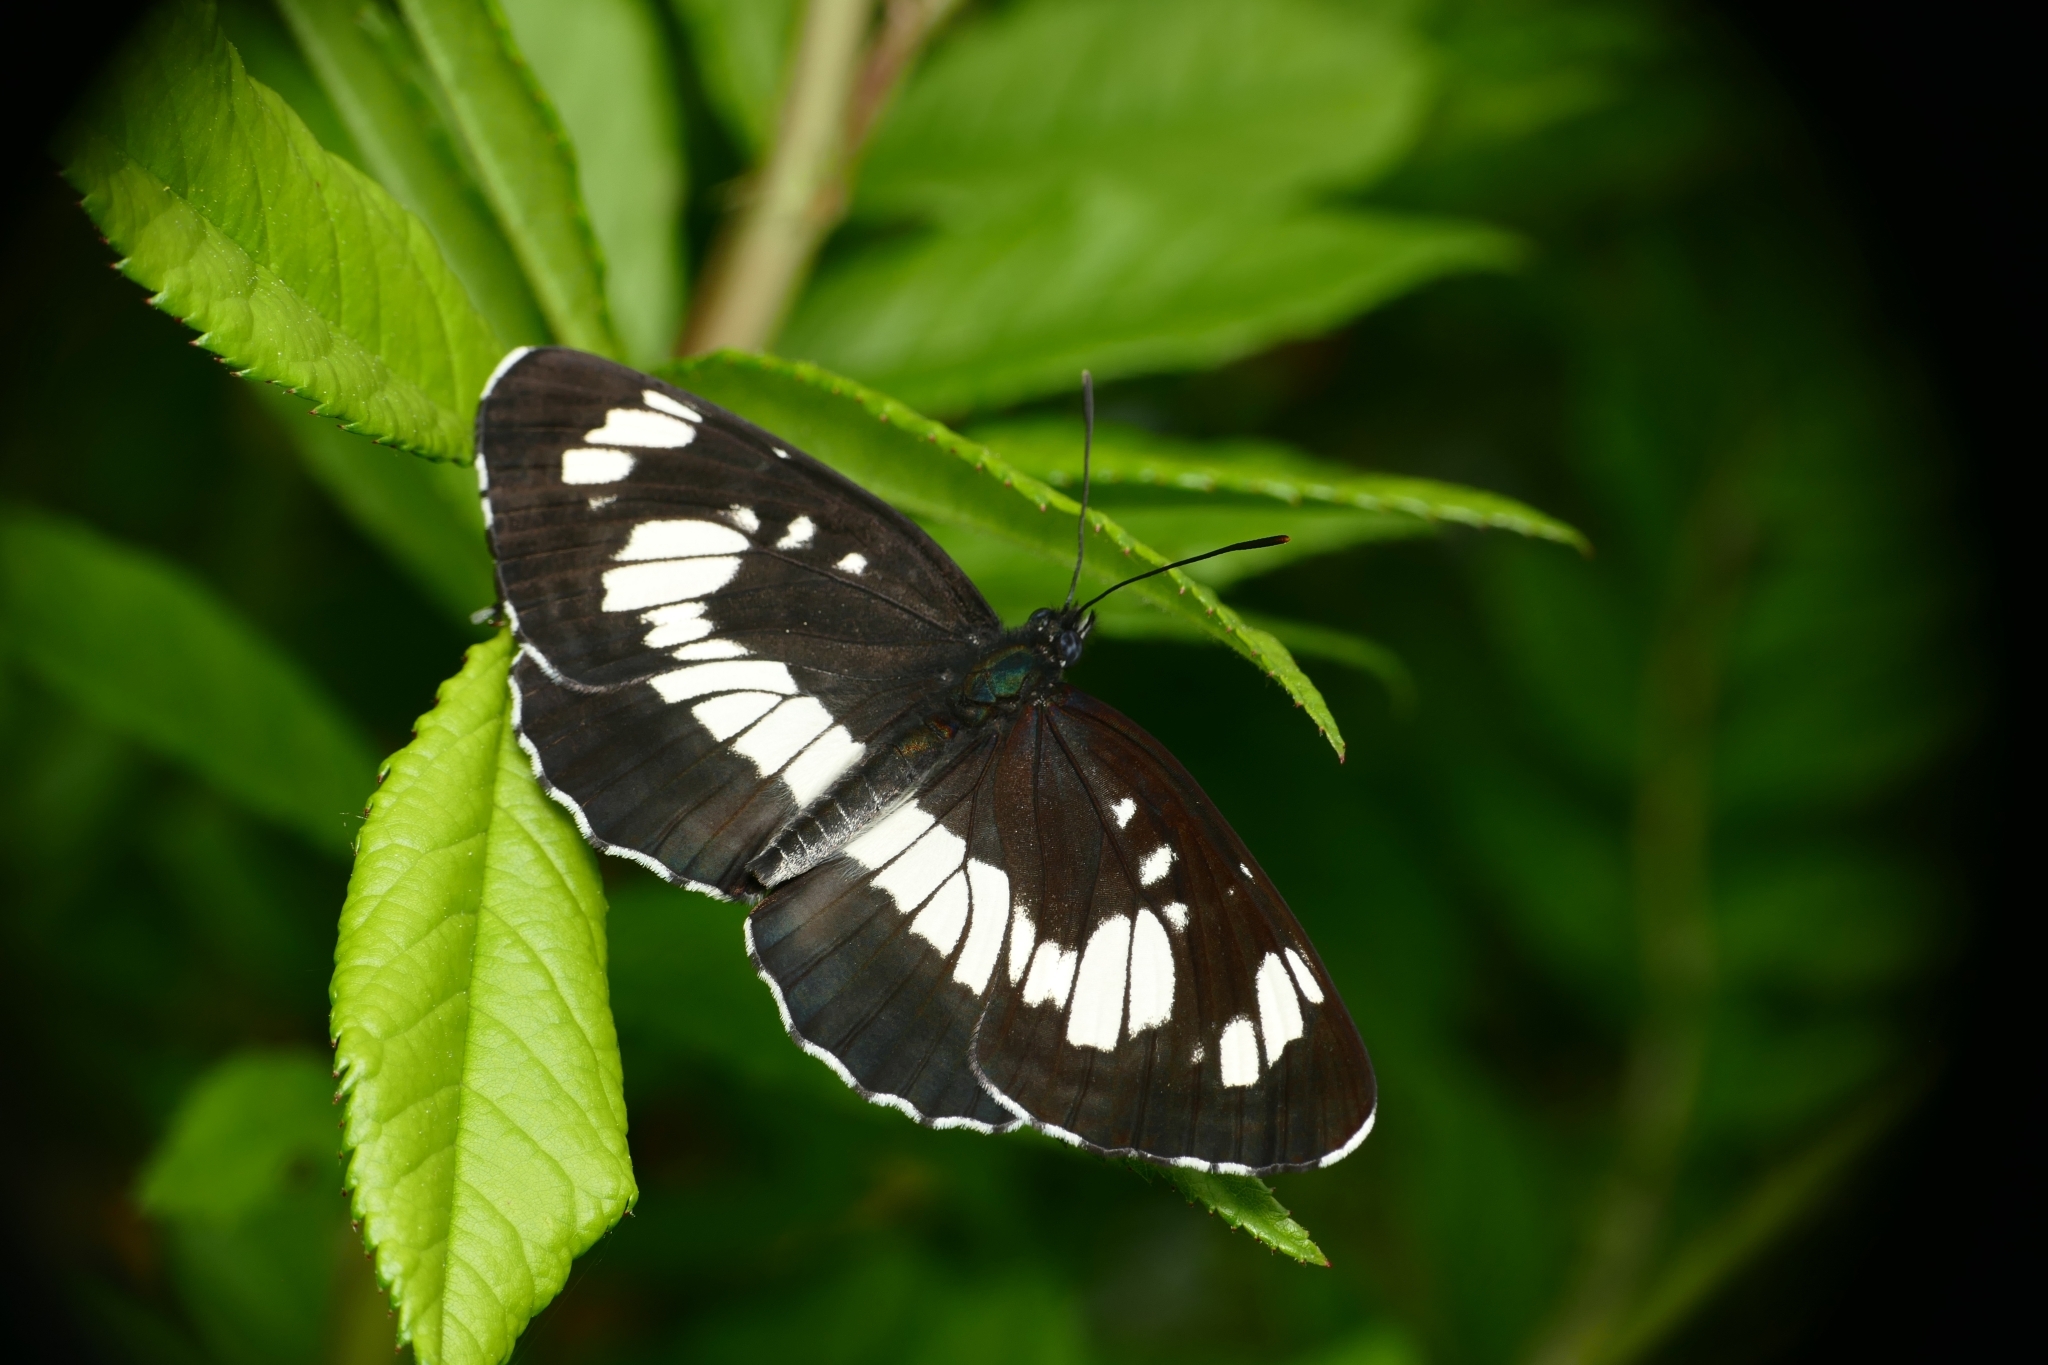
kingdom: Animalia
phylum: Arthropoda
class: Insecta
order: Lepidoptera
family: Nymphalidae
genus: Neptis
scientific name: Neptis rivularis
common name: Hungarian glider
